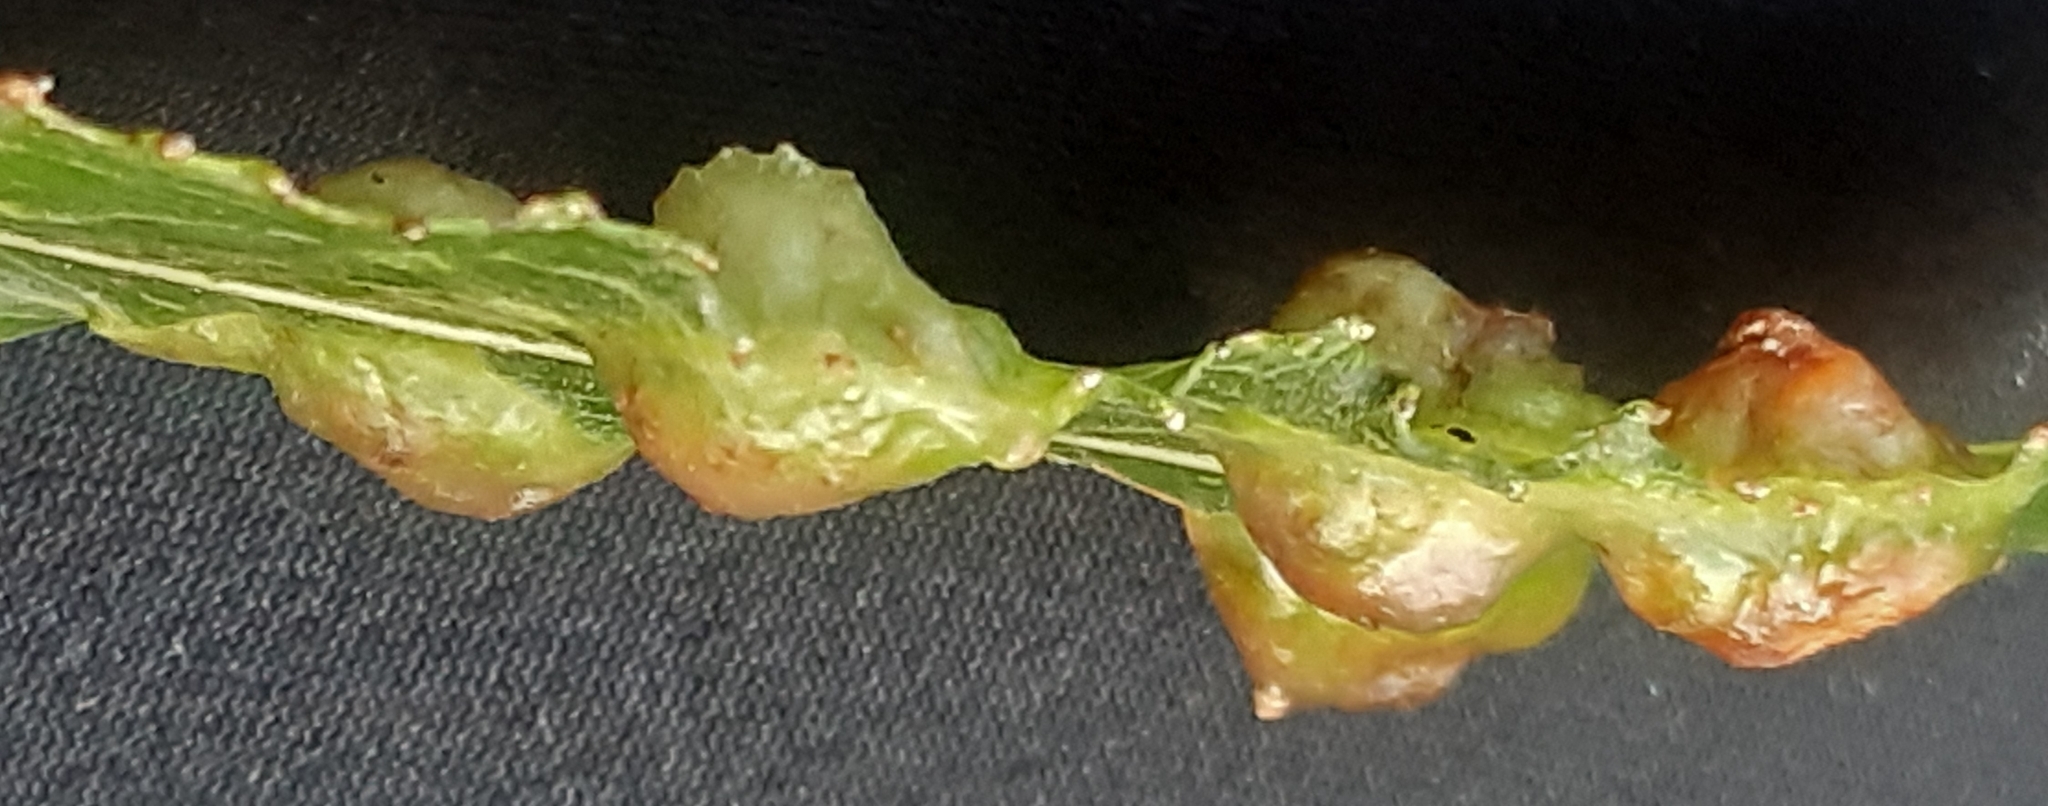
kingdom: Animalia
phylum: Arthropoda
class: Insecta
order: Hymenoptera
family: Tenthredinidae
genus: Pontania
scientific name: Pontania proxima
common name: Common sawfly
